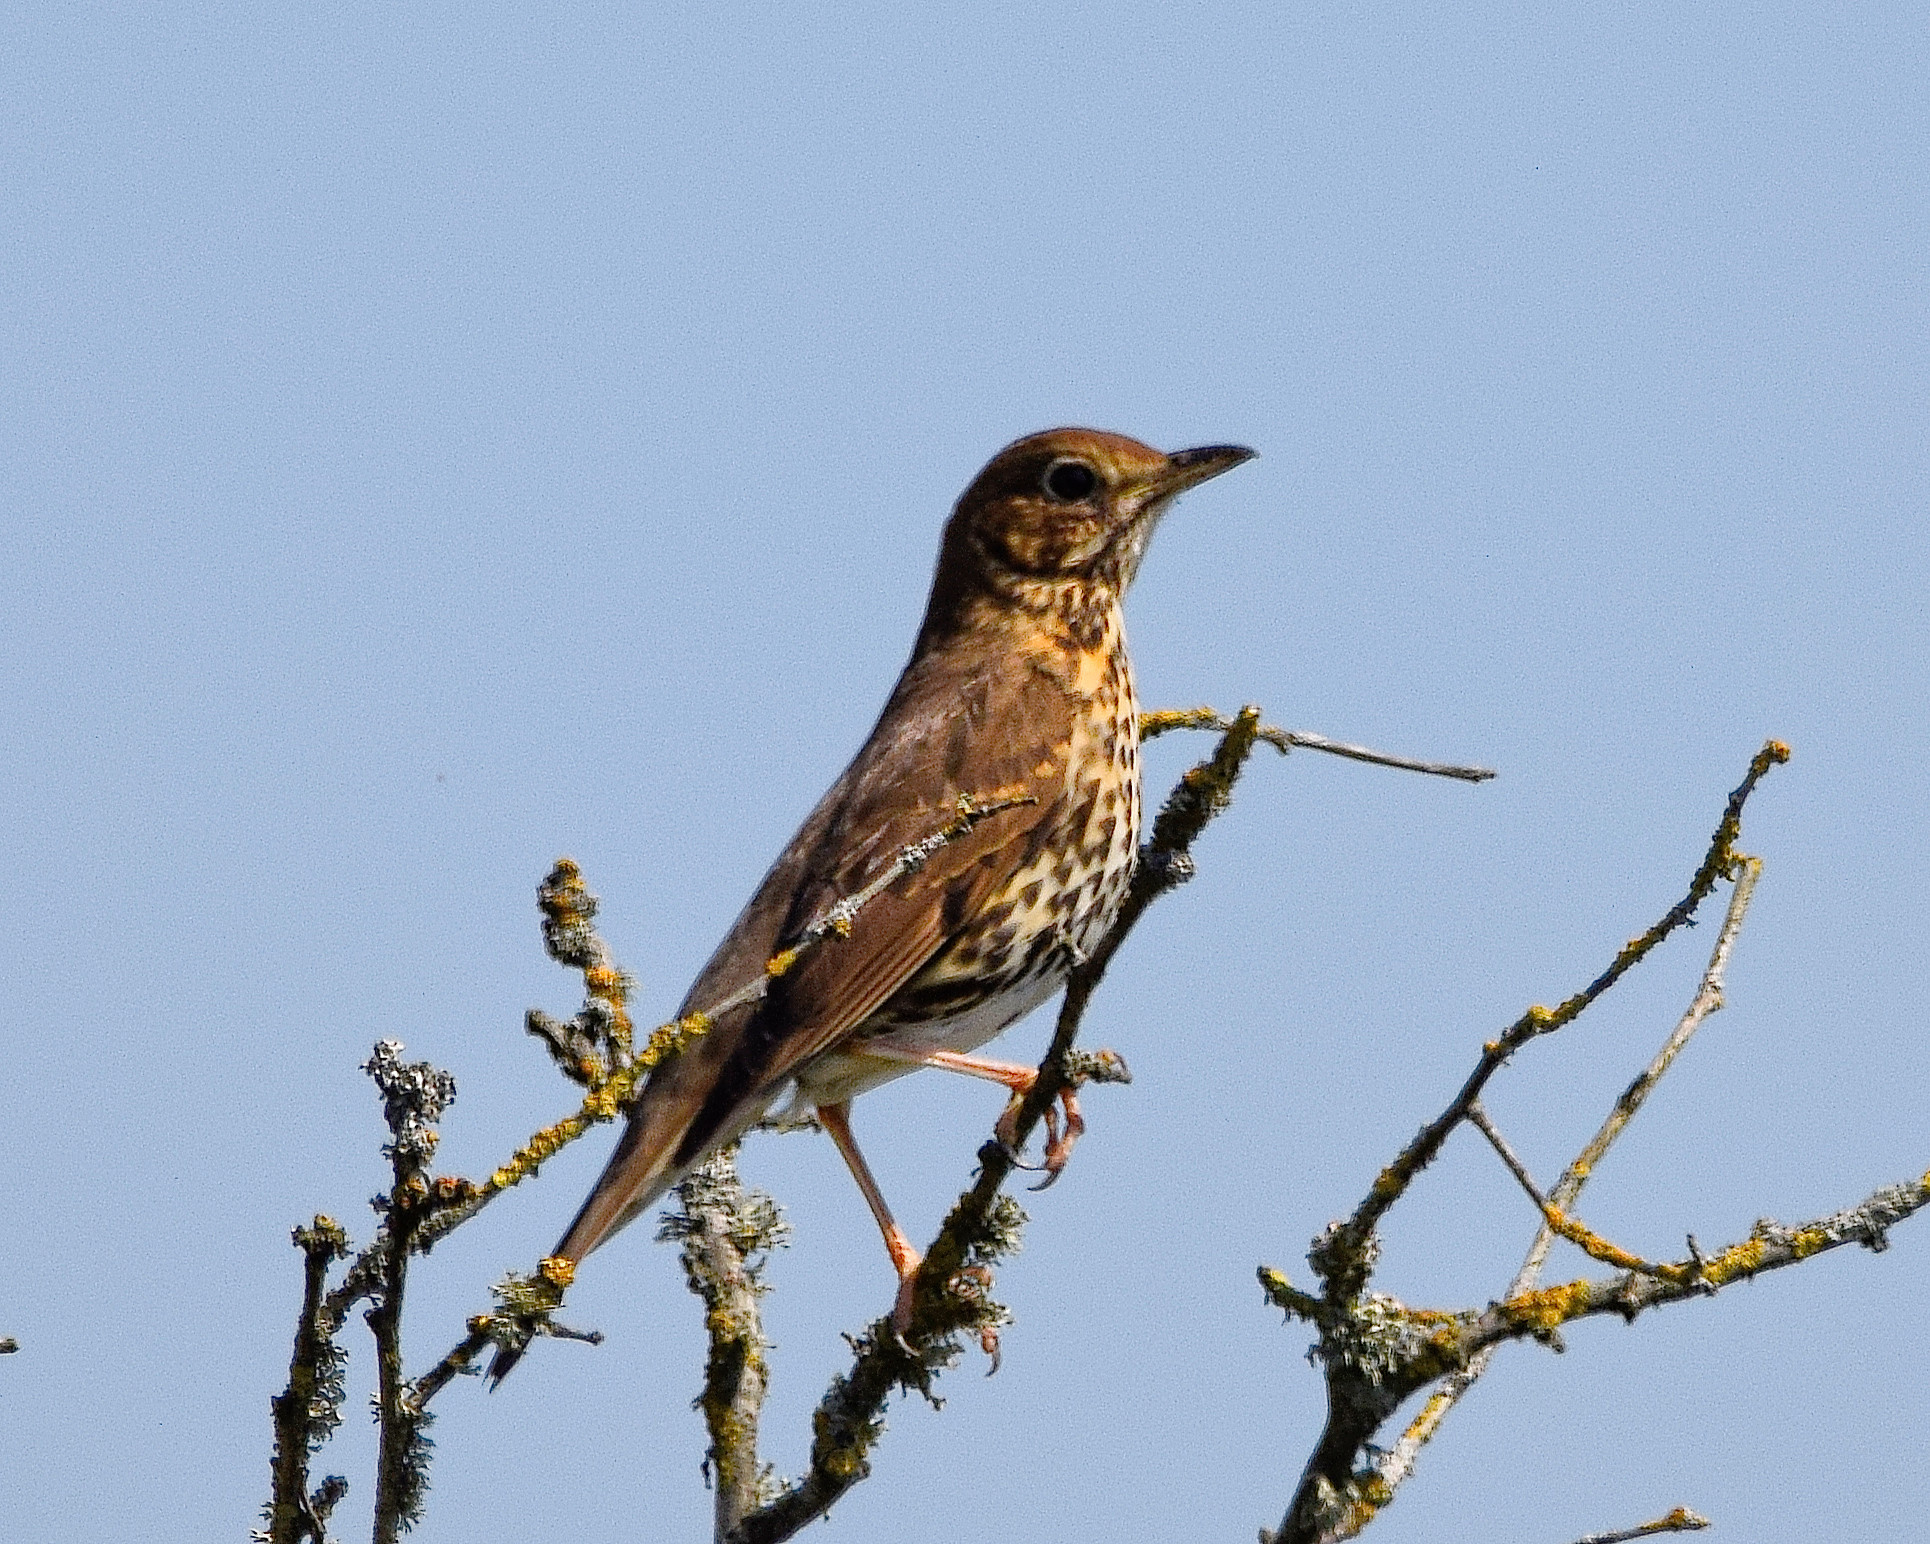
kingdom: Animalia
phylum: Chordata
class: Aves
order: Passeriformes
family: Turdidae
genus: Turdus
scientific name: Turdus philomelos
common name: Song thrush
